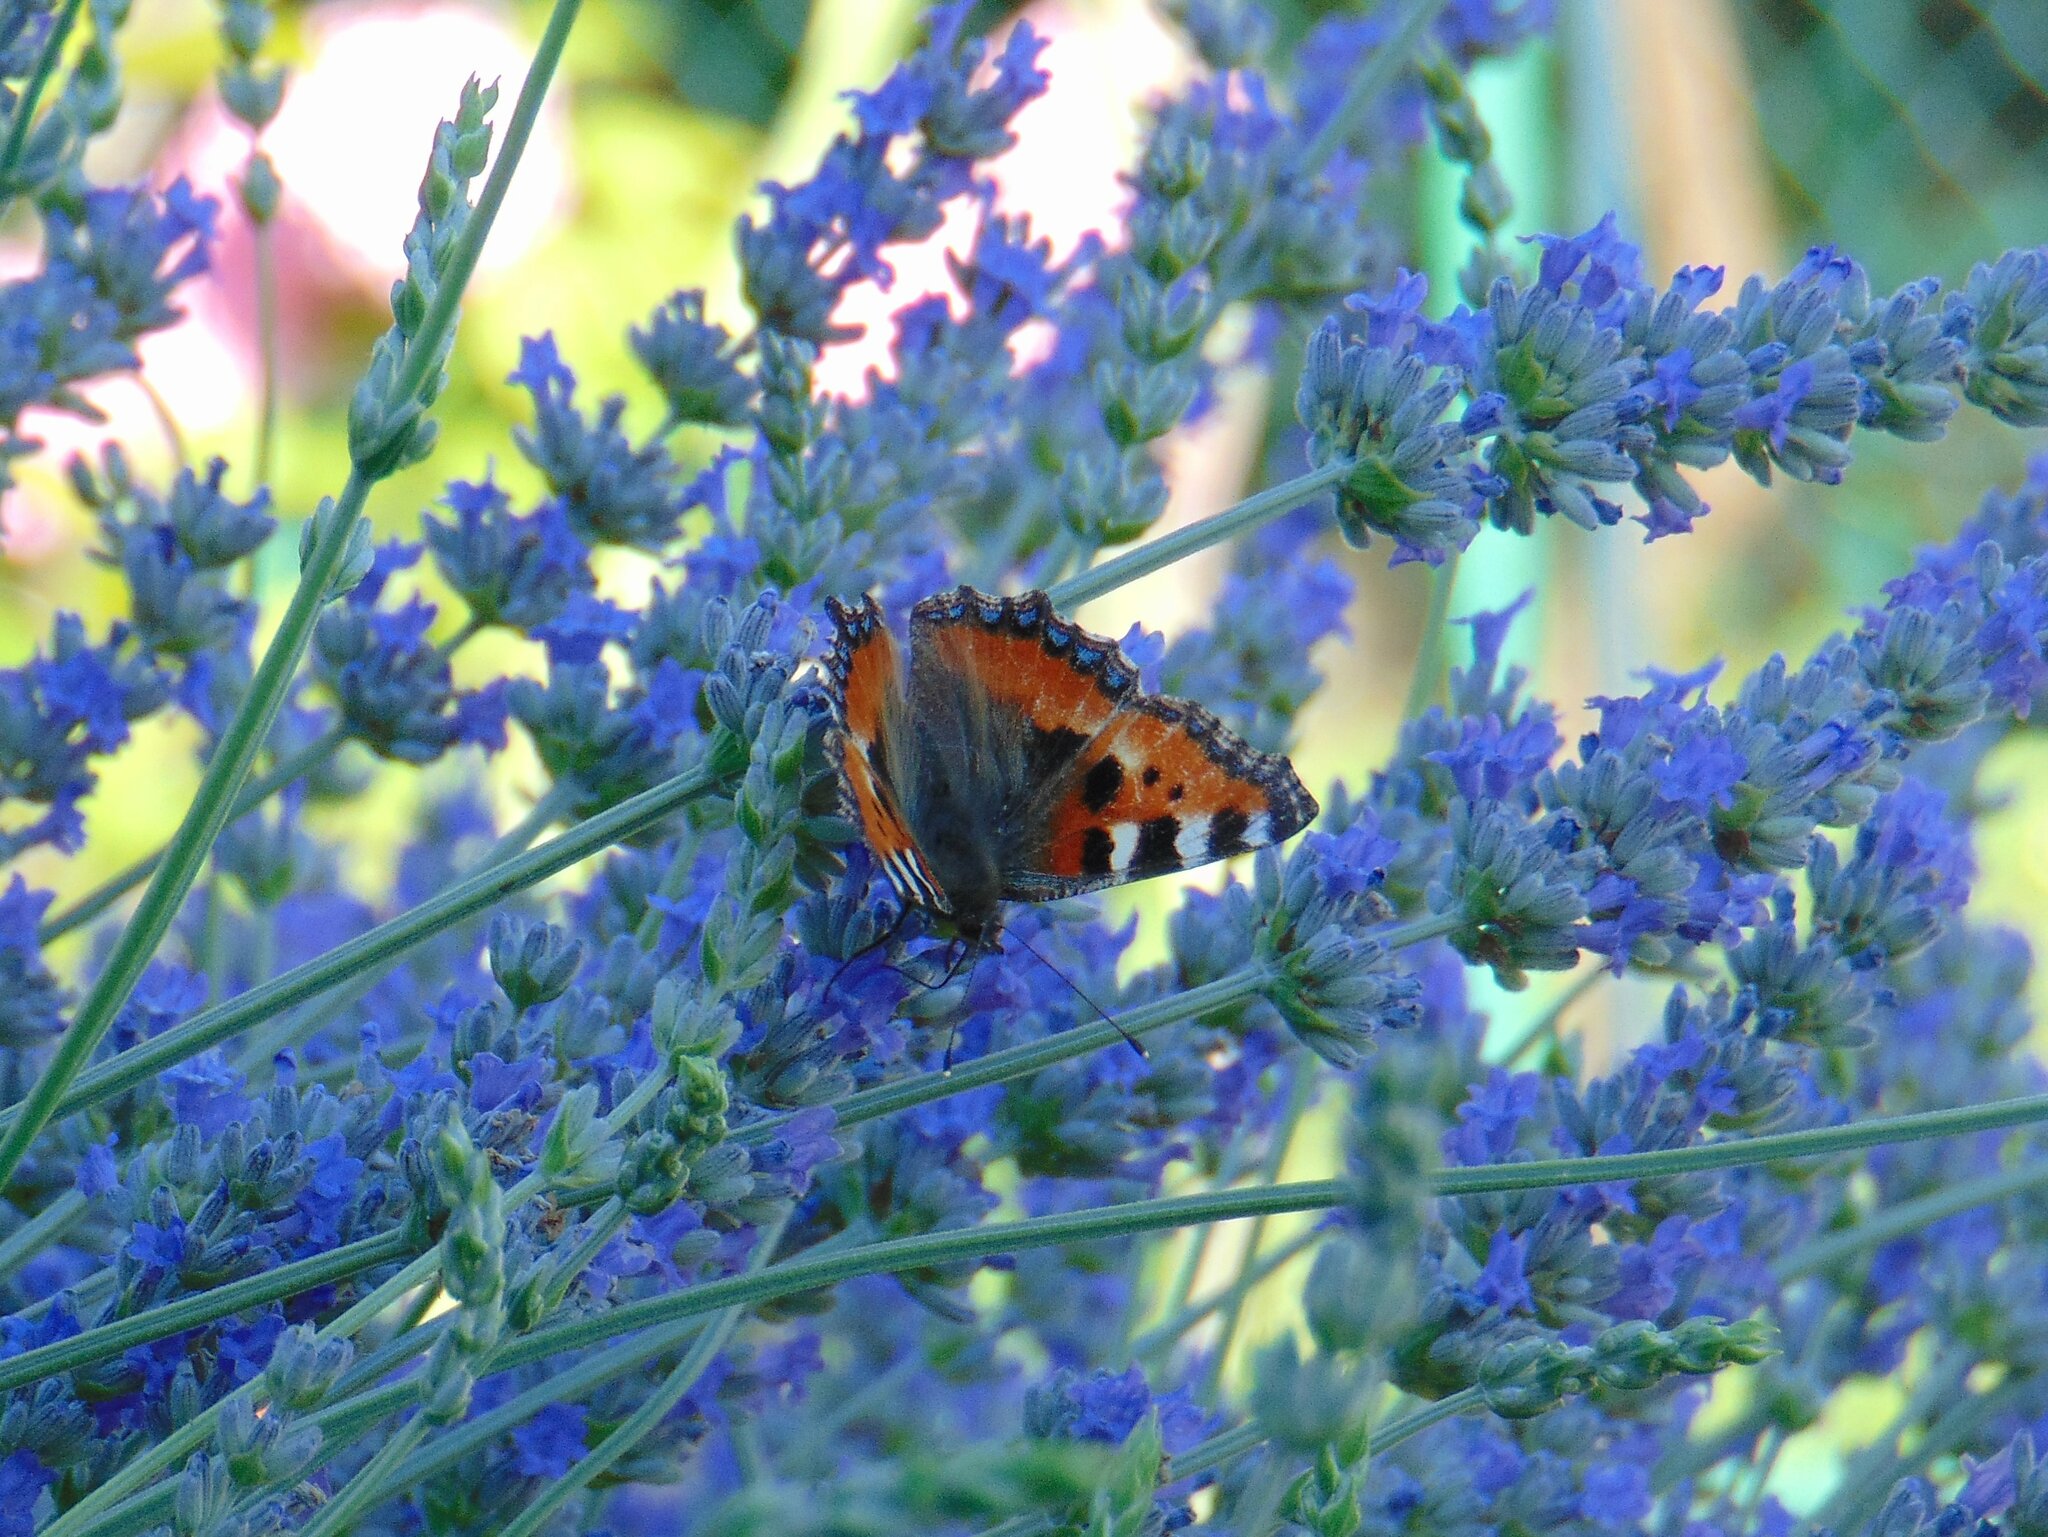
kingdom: Animalia
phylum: Arthropoda
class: Insecta
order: Lepidoptera
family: Nymphalidae
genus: Aglais
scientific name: Aglais urticae
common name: Small tortoiseshell
